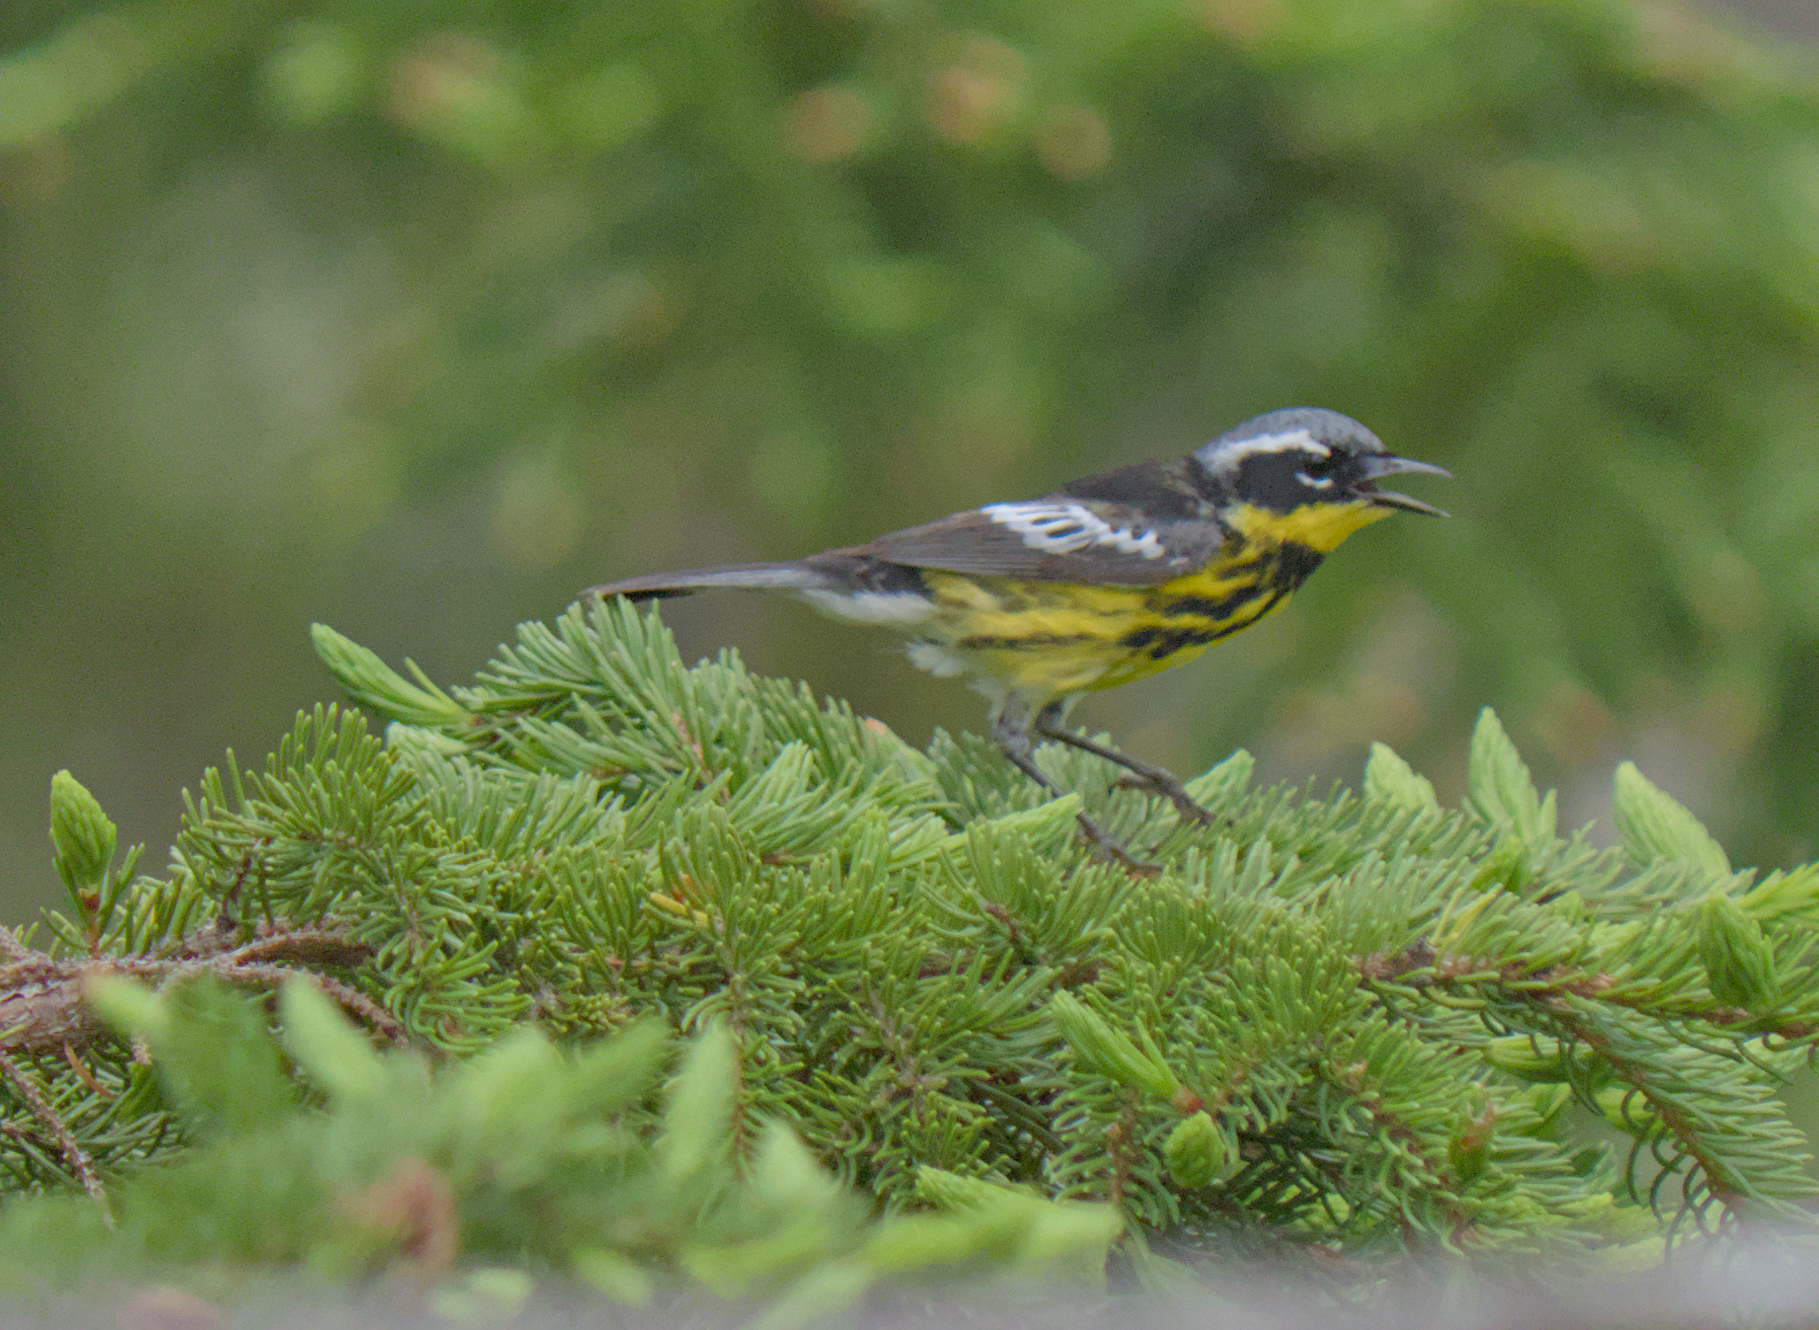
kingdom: Animalia
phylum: Chordata
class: Aves
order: Passeriformes
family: Parulidae
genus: Setophaga
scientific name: Setophaga magnolia
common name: Magnolia warbler
